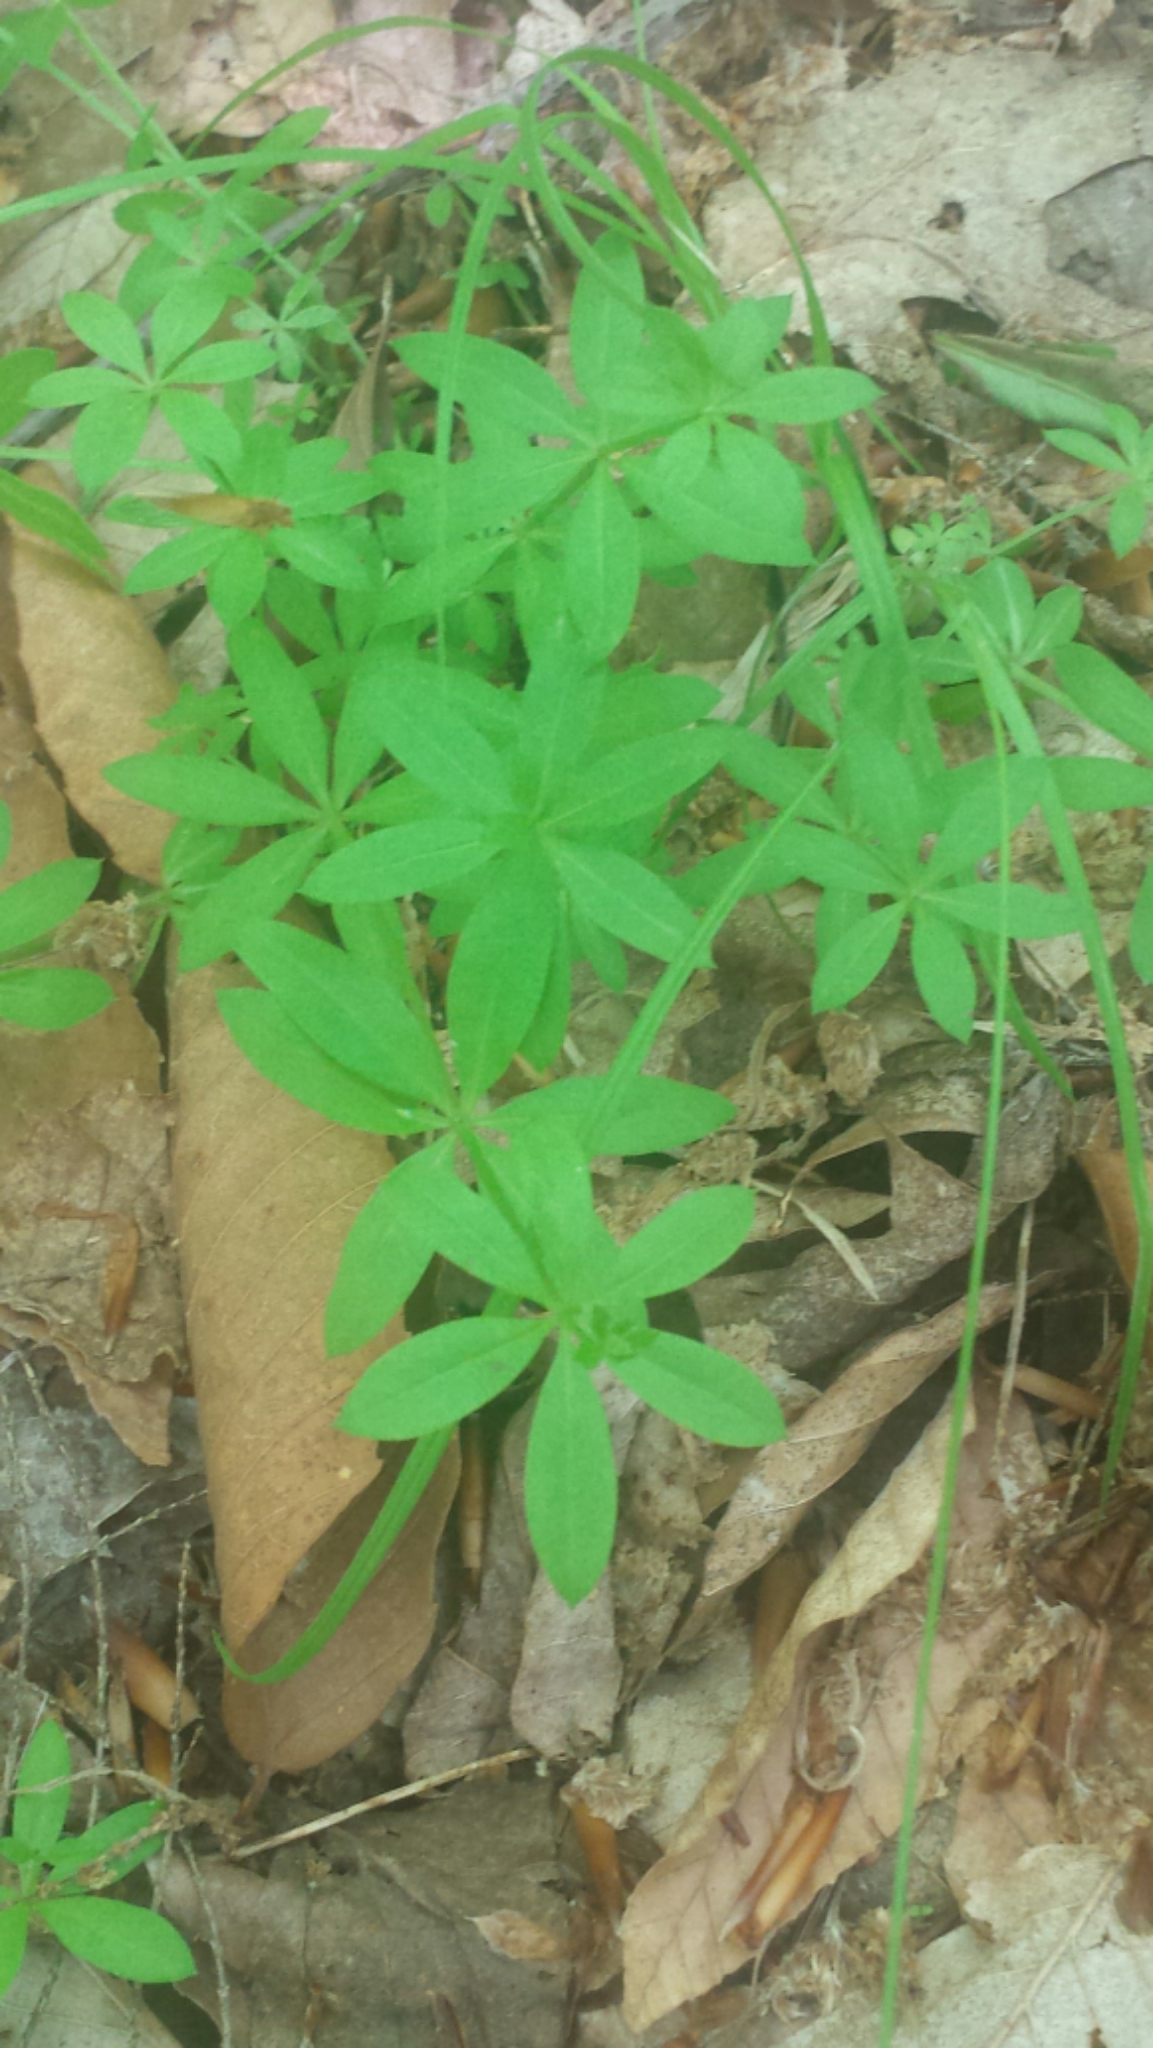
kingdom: Plantae
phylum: Tracheophyta
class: Magnoliopsida
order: Gentianales
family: Rubiaceae
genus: Galium
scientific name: Galium triflorum
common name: Fragrant bedstraw
